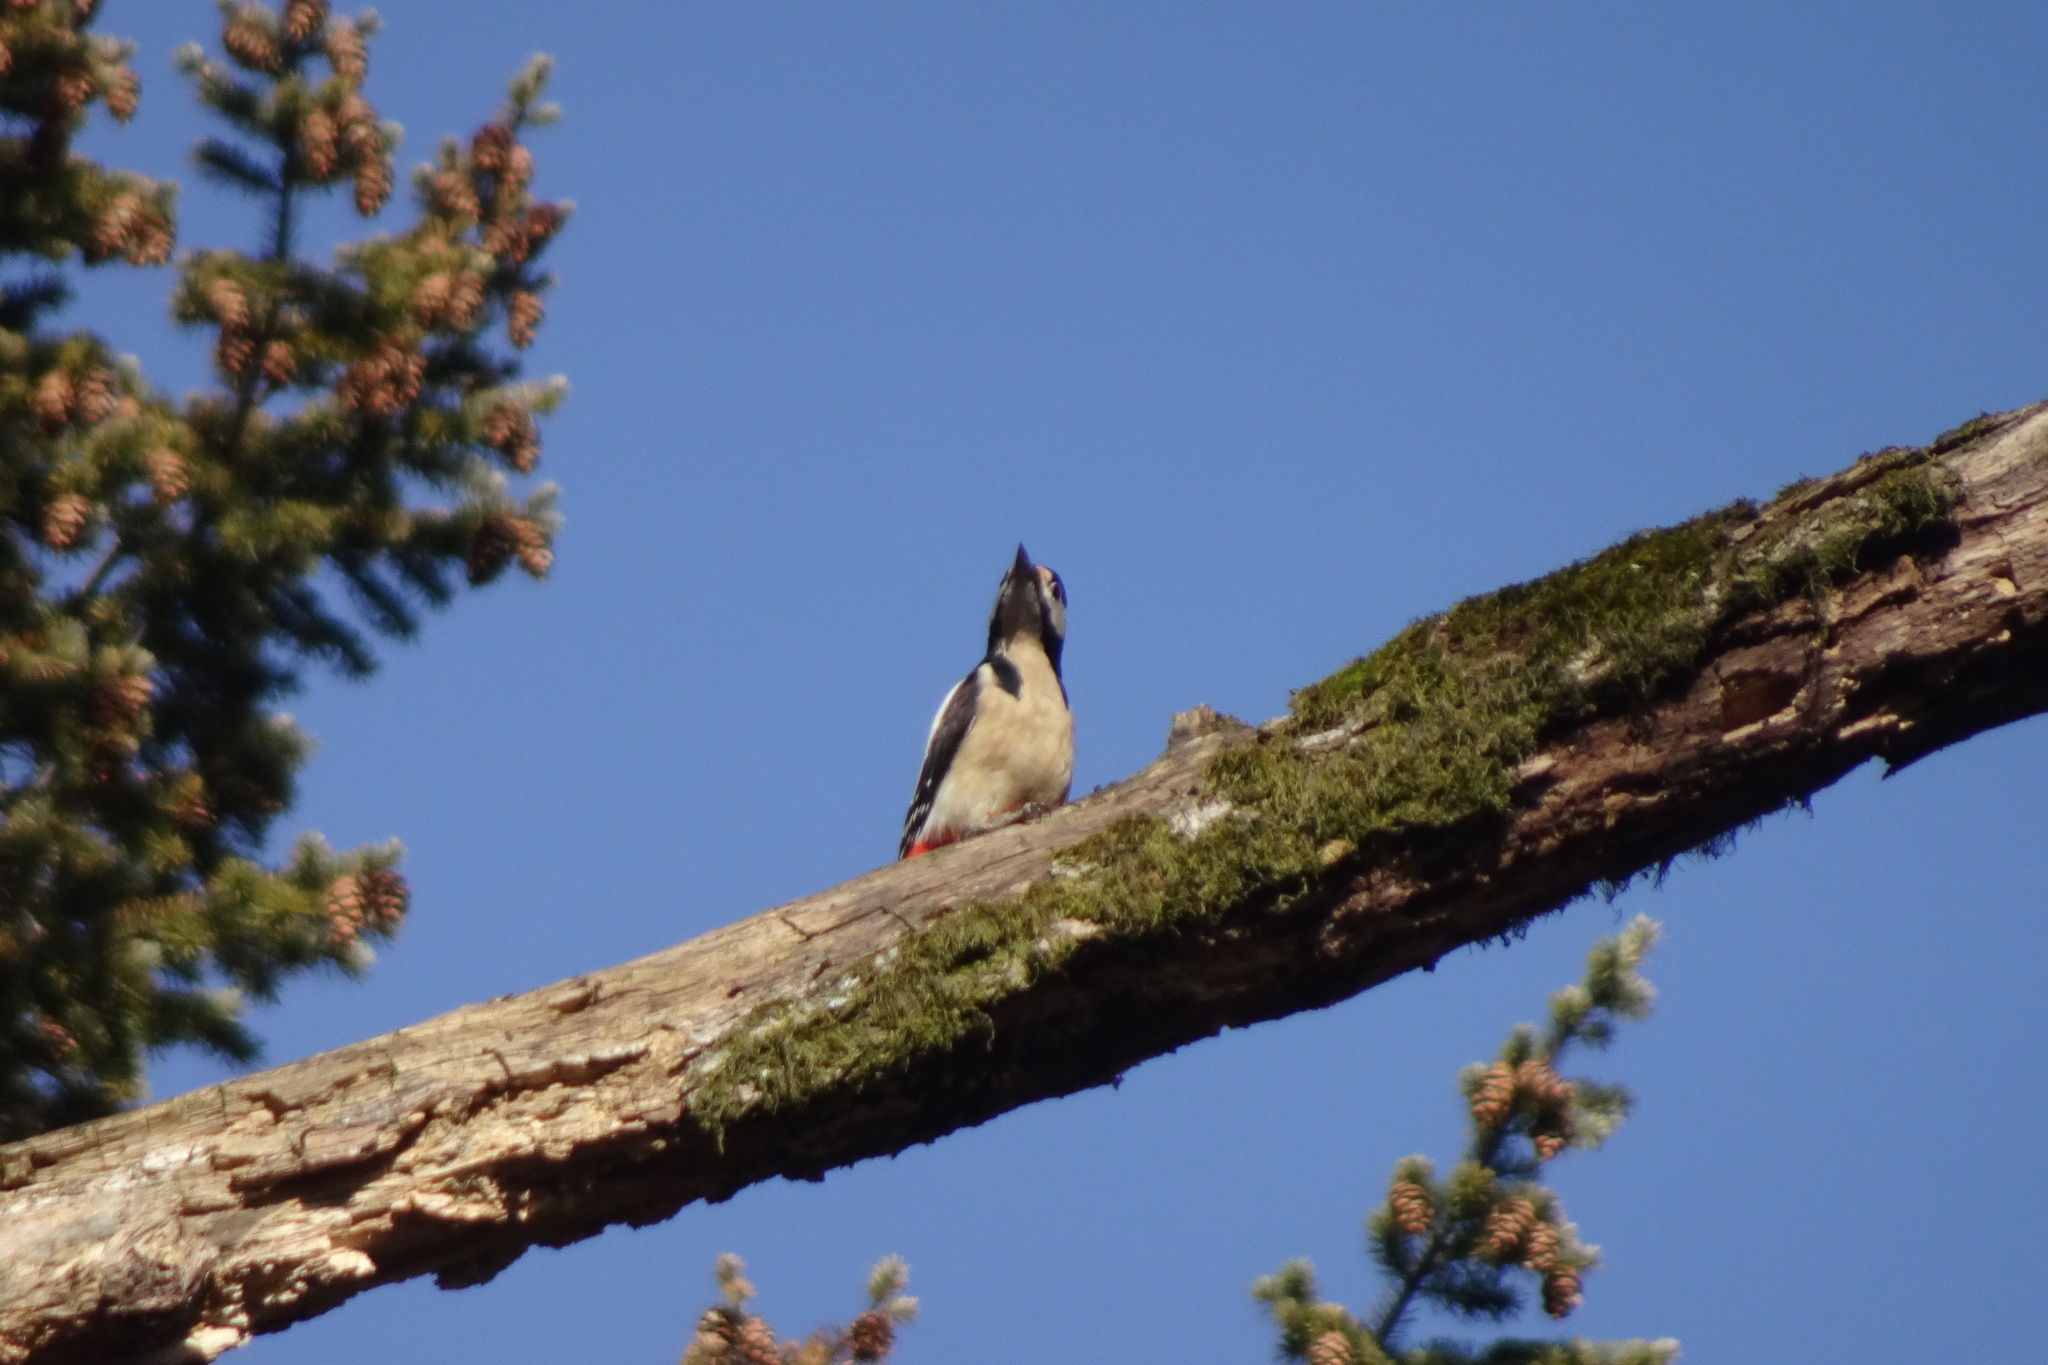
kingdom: Animalia
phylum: Chordata
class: Aves
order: Piciformes
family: Picidae
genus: Dendrocopos
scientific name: Dendrocopos major
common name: Great spotted woodpecker
